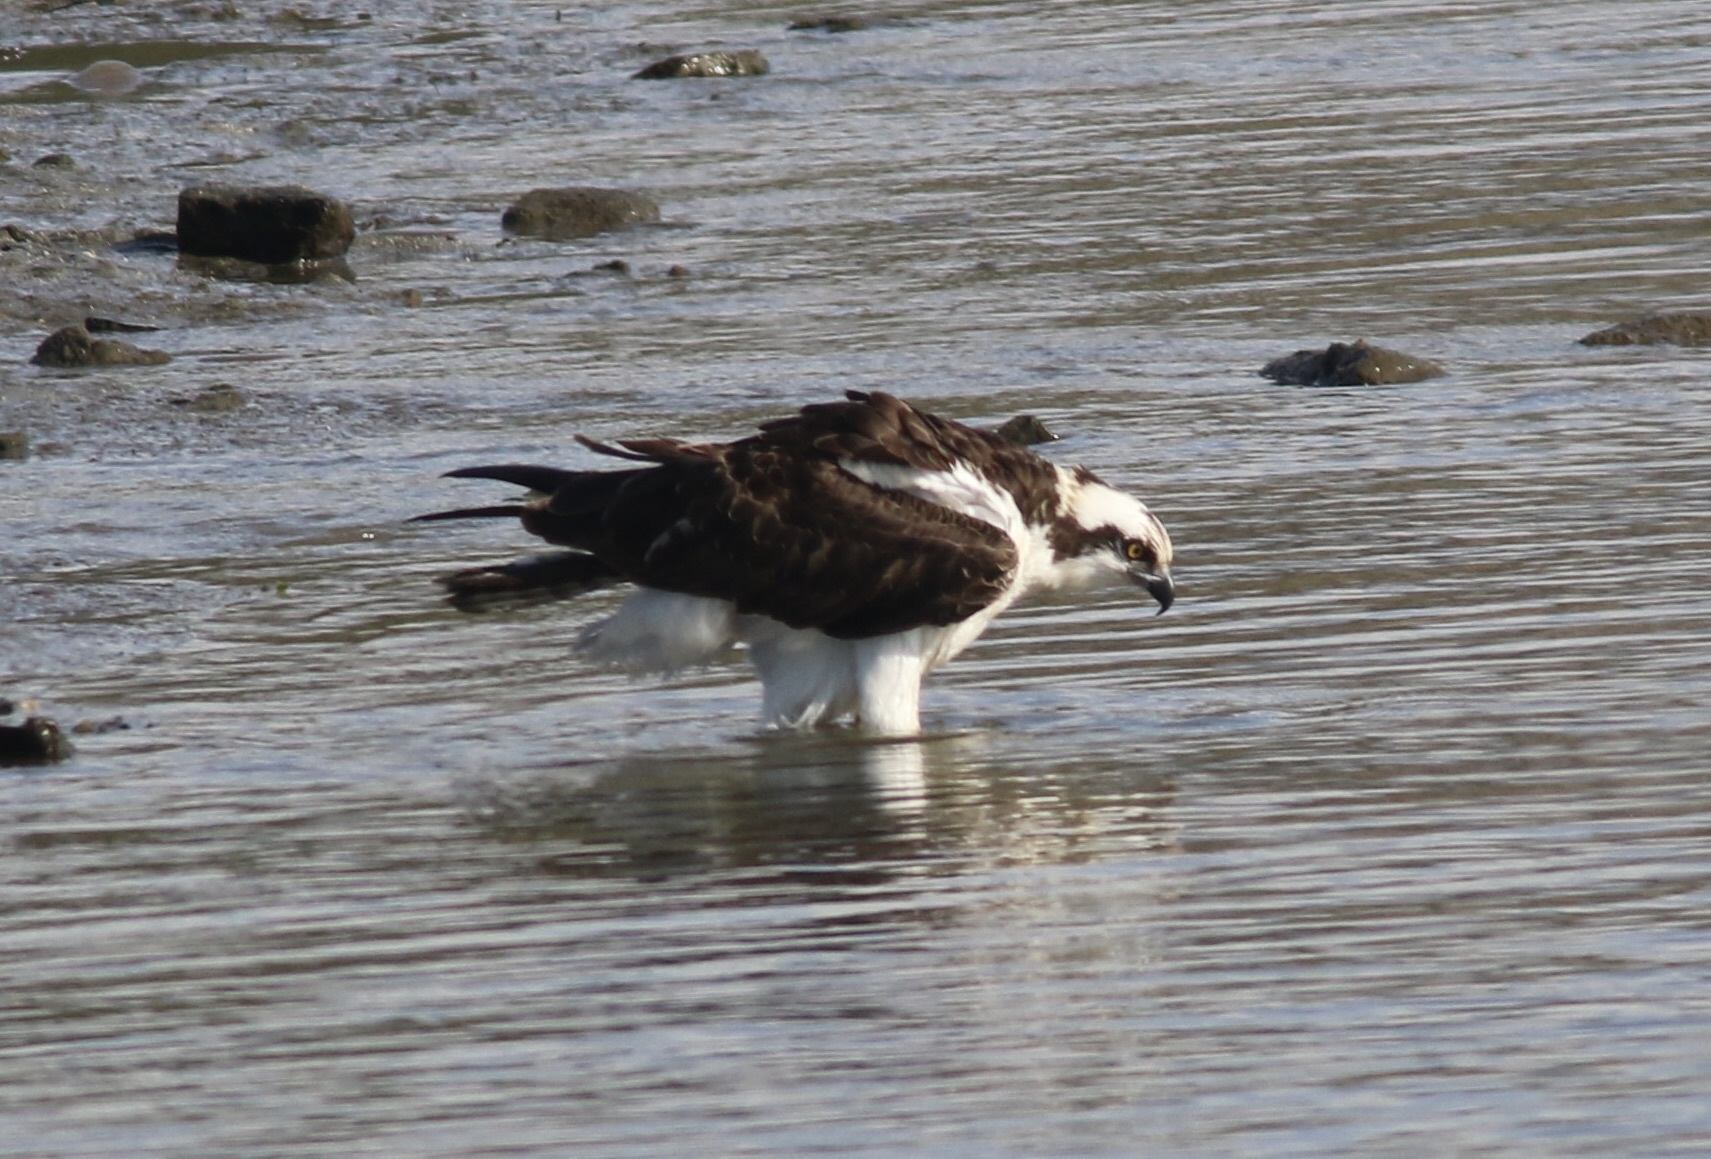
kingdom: Animalia
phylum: Chordata
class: Aves
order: Accipitriformes
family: Pandionidae
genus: Pandion
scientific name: Pandion haliaetus
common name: Osprey
